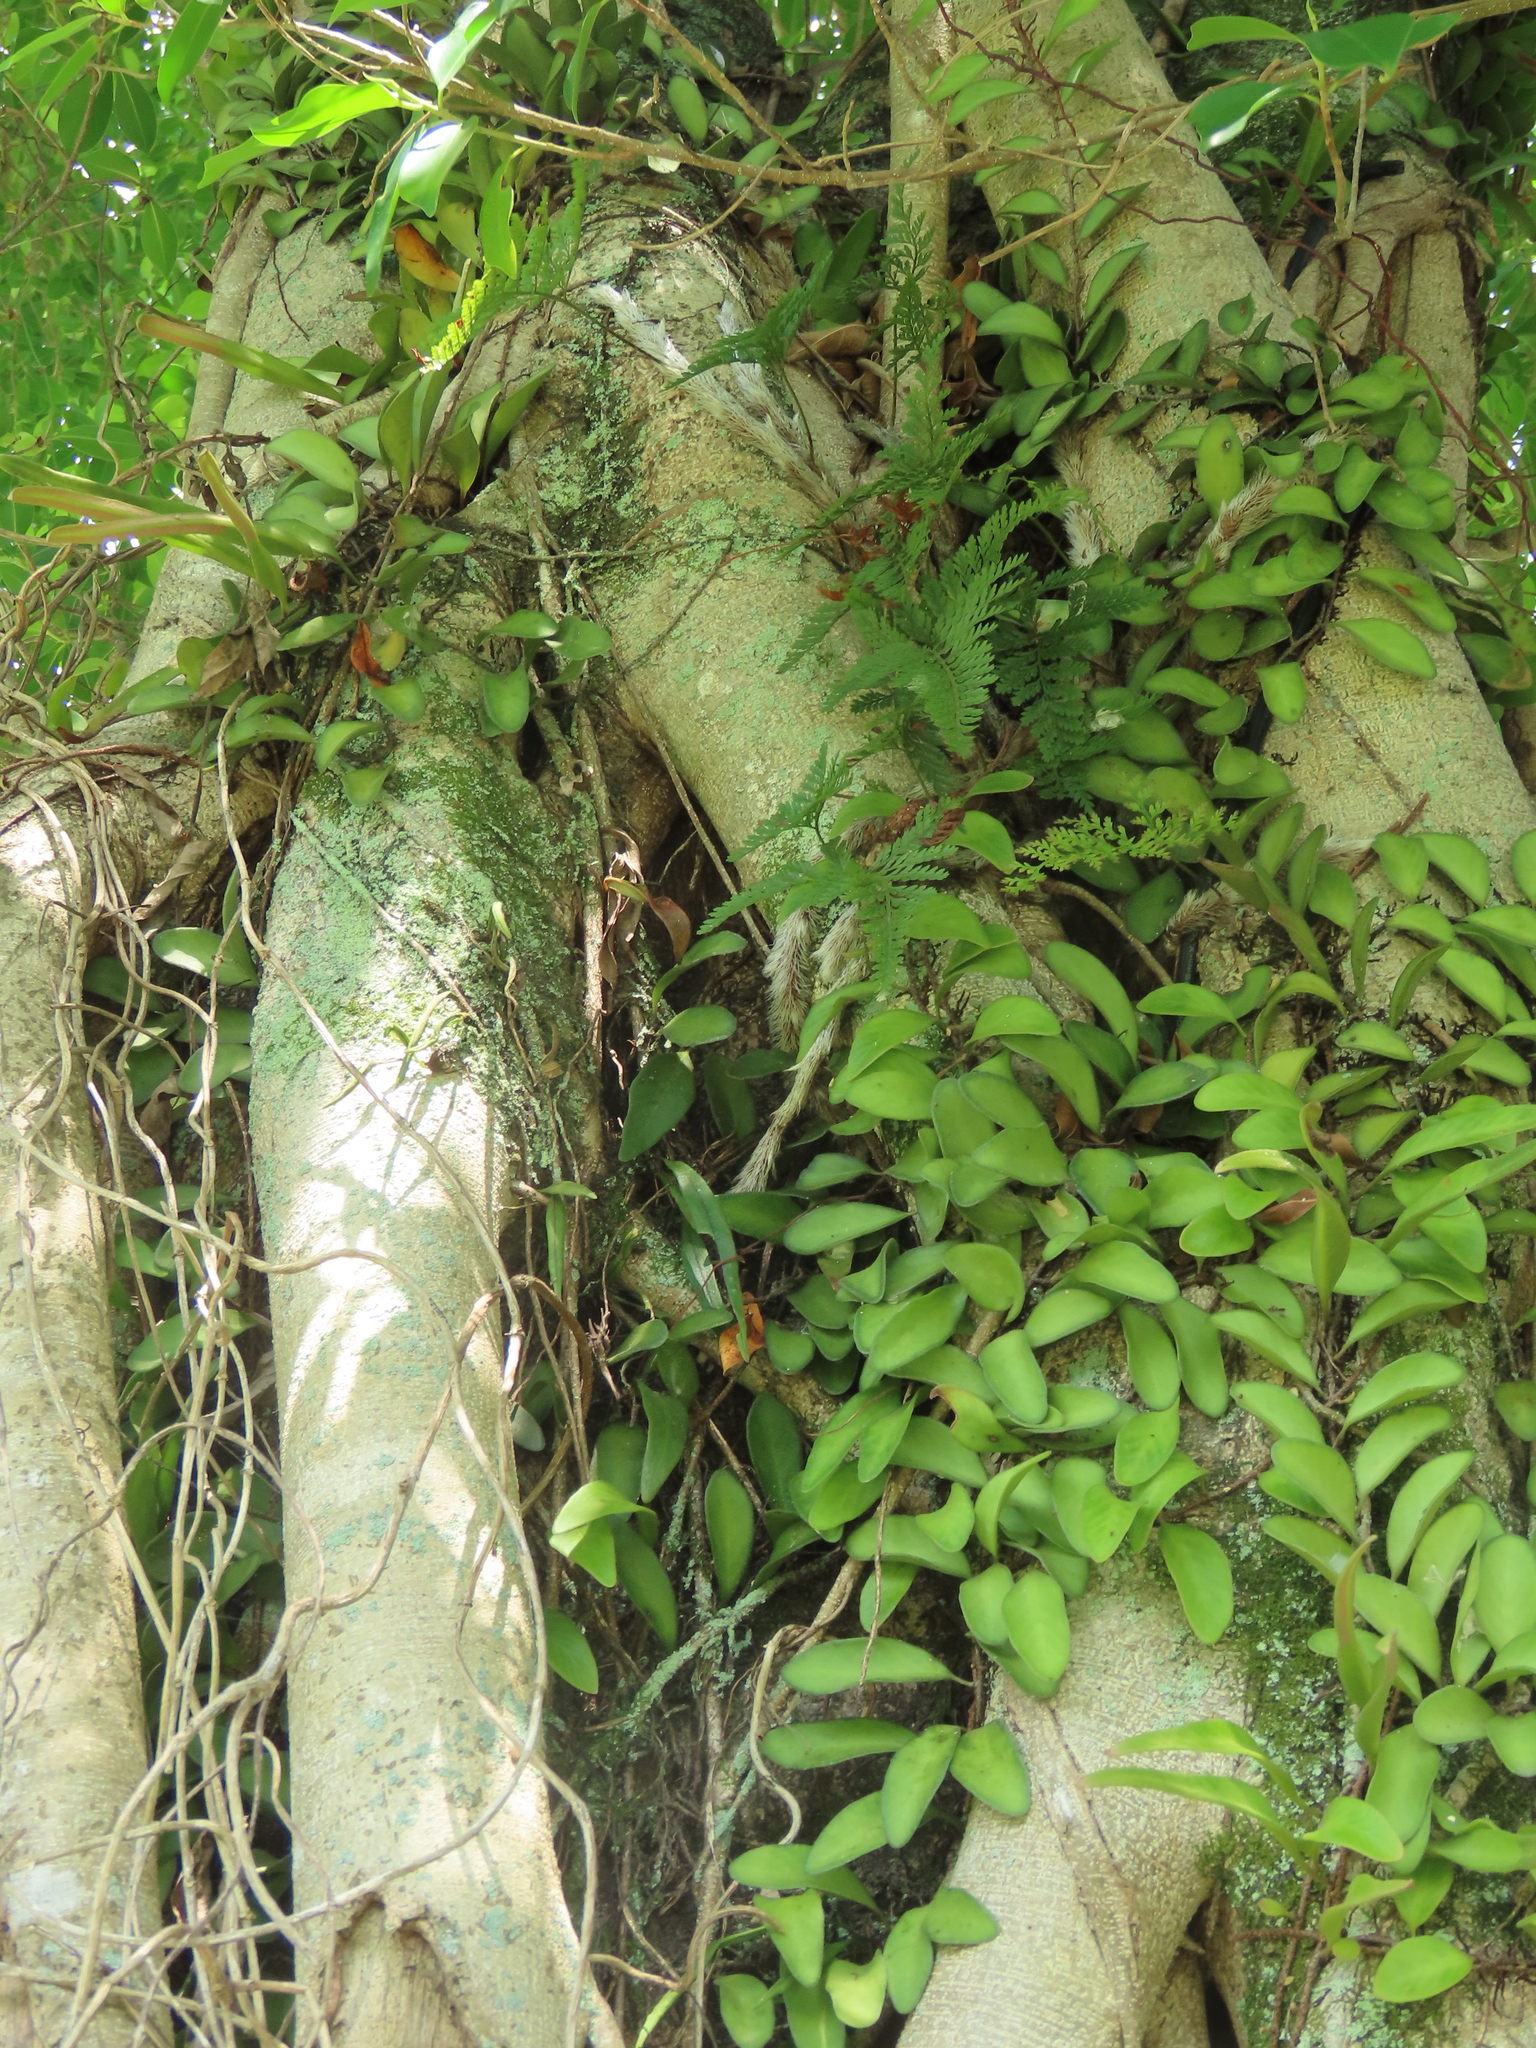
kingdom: Plantae
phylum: Tracheophyta
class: Polypodiopsida
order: Polypodiales
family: Polypodiaceae
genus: Pyrrosia
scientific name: Pyrrosia lanceolata
